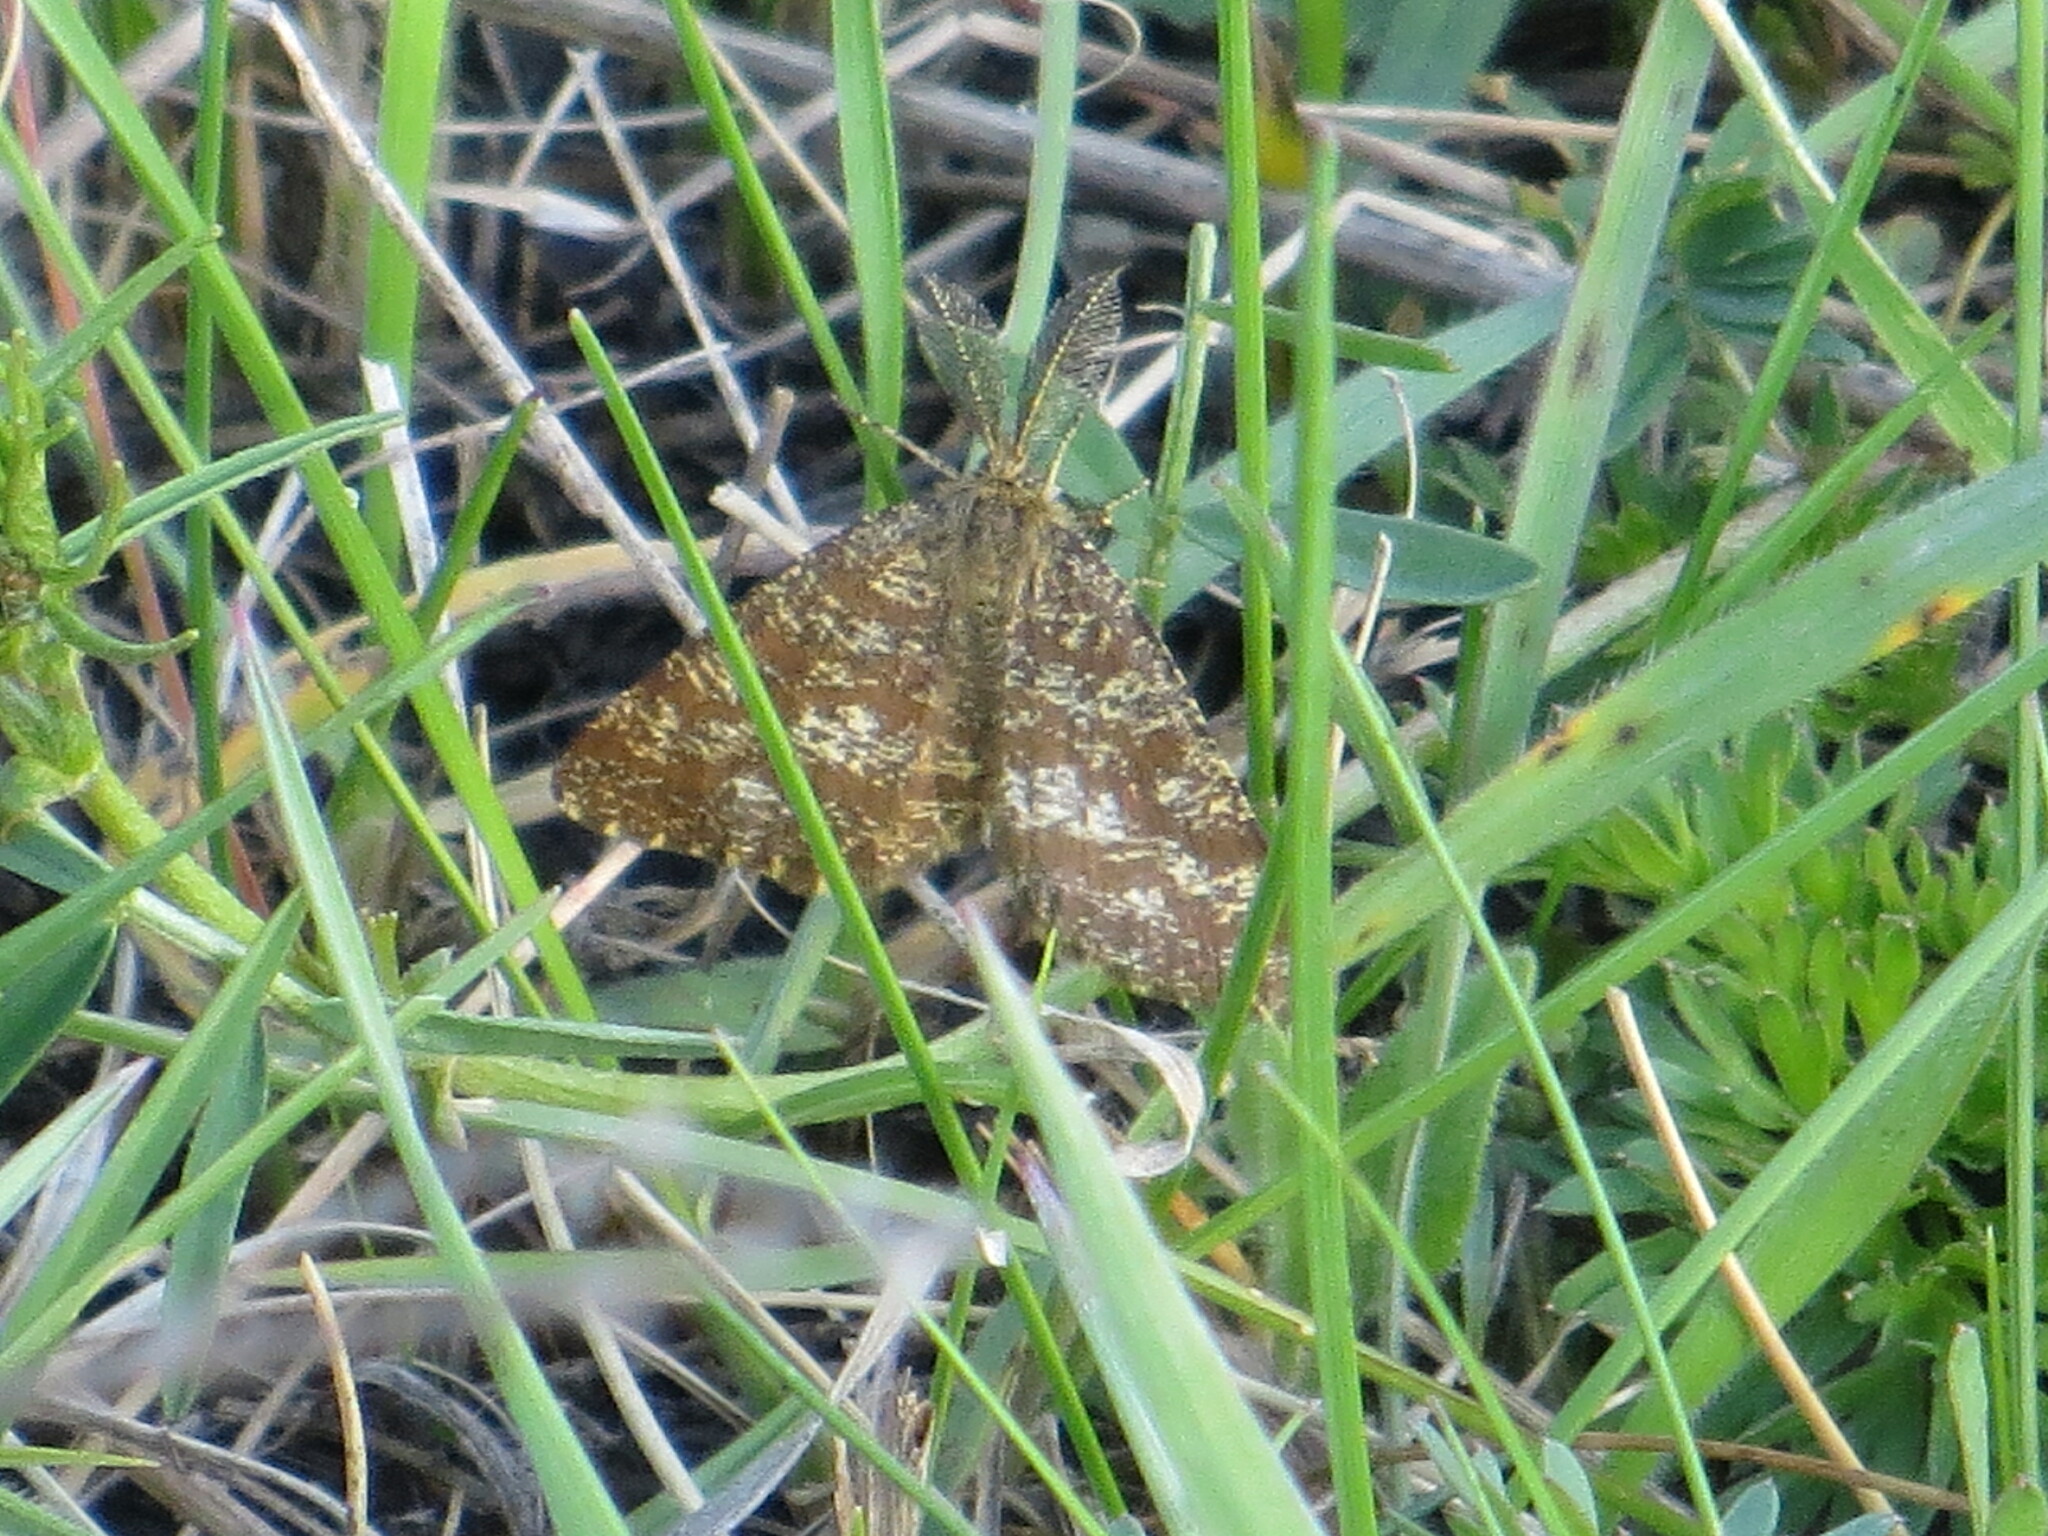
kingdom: Animalia
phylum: Arthropoda
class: Insecta
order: Lepidoptera
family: Geometridae
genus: Ematurga
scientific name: Ematurga atomaria
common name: Common heath
